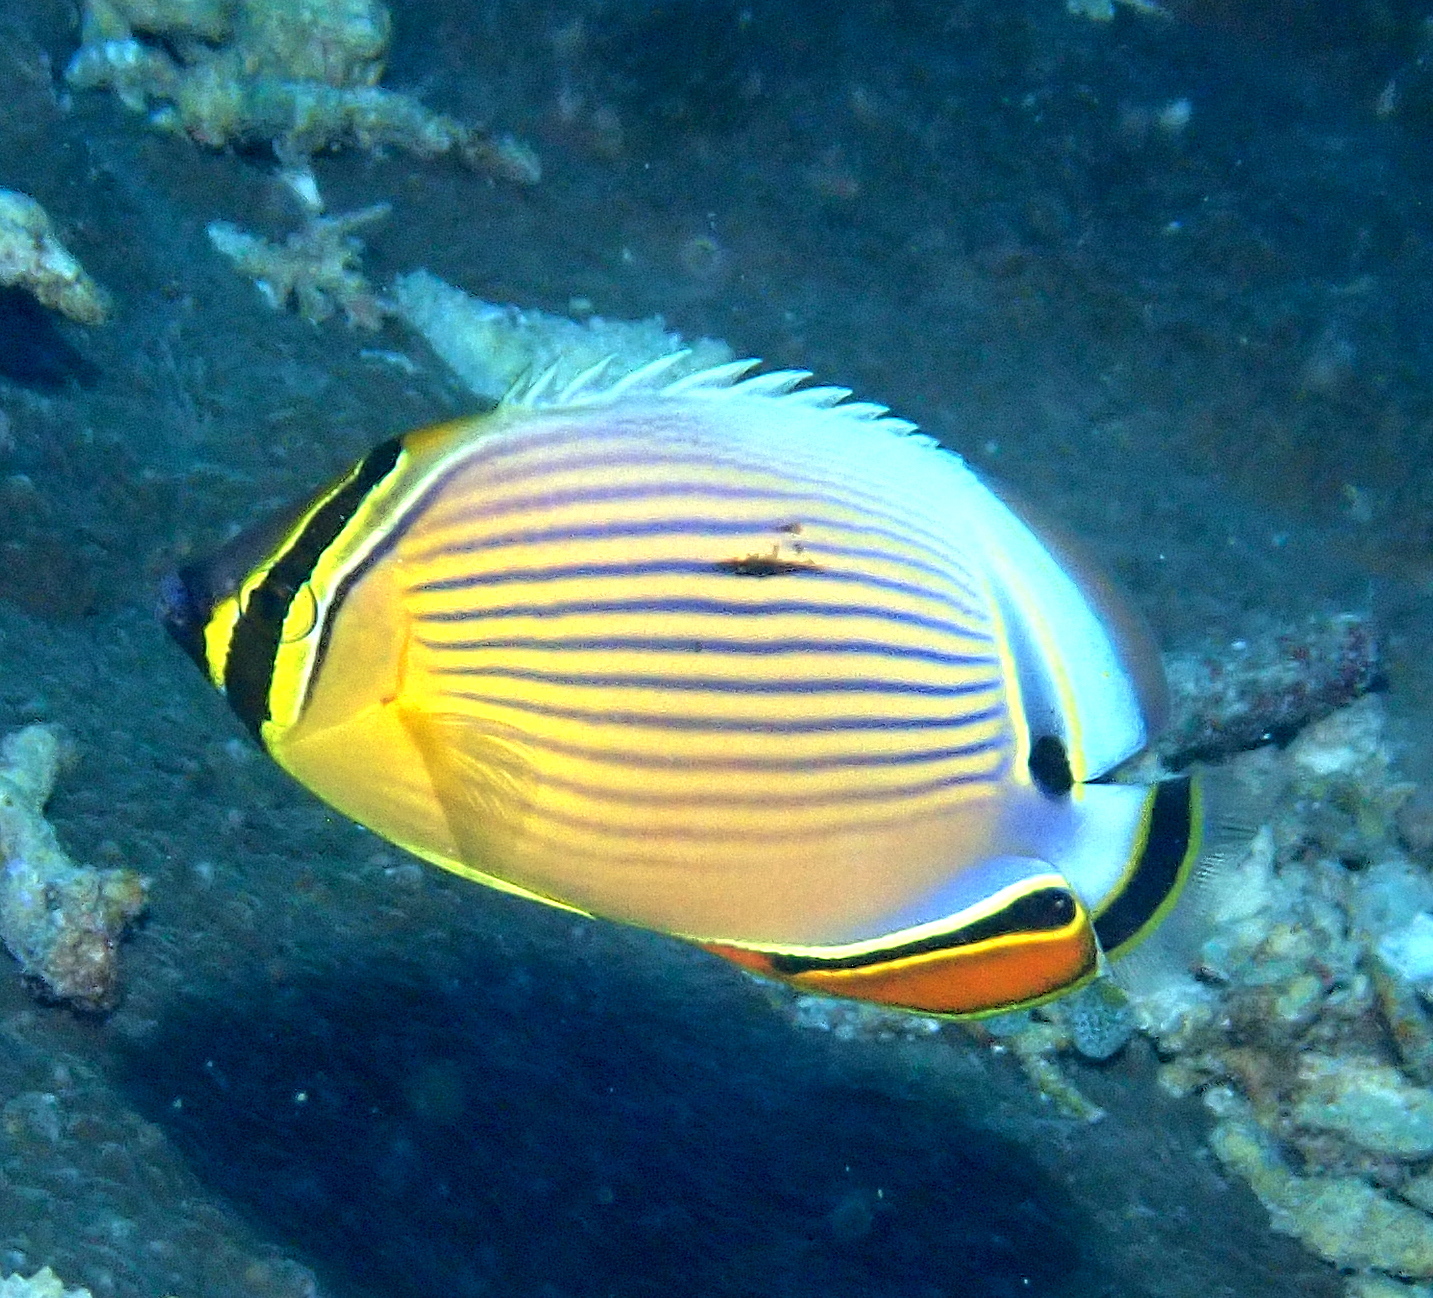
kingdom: Animalia
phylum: Chordata
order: Perciformes
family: Chaetodontidae
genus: Chaetodon
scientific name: Chaetodon lunulatus
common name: Redfin butterflyfish
